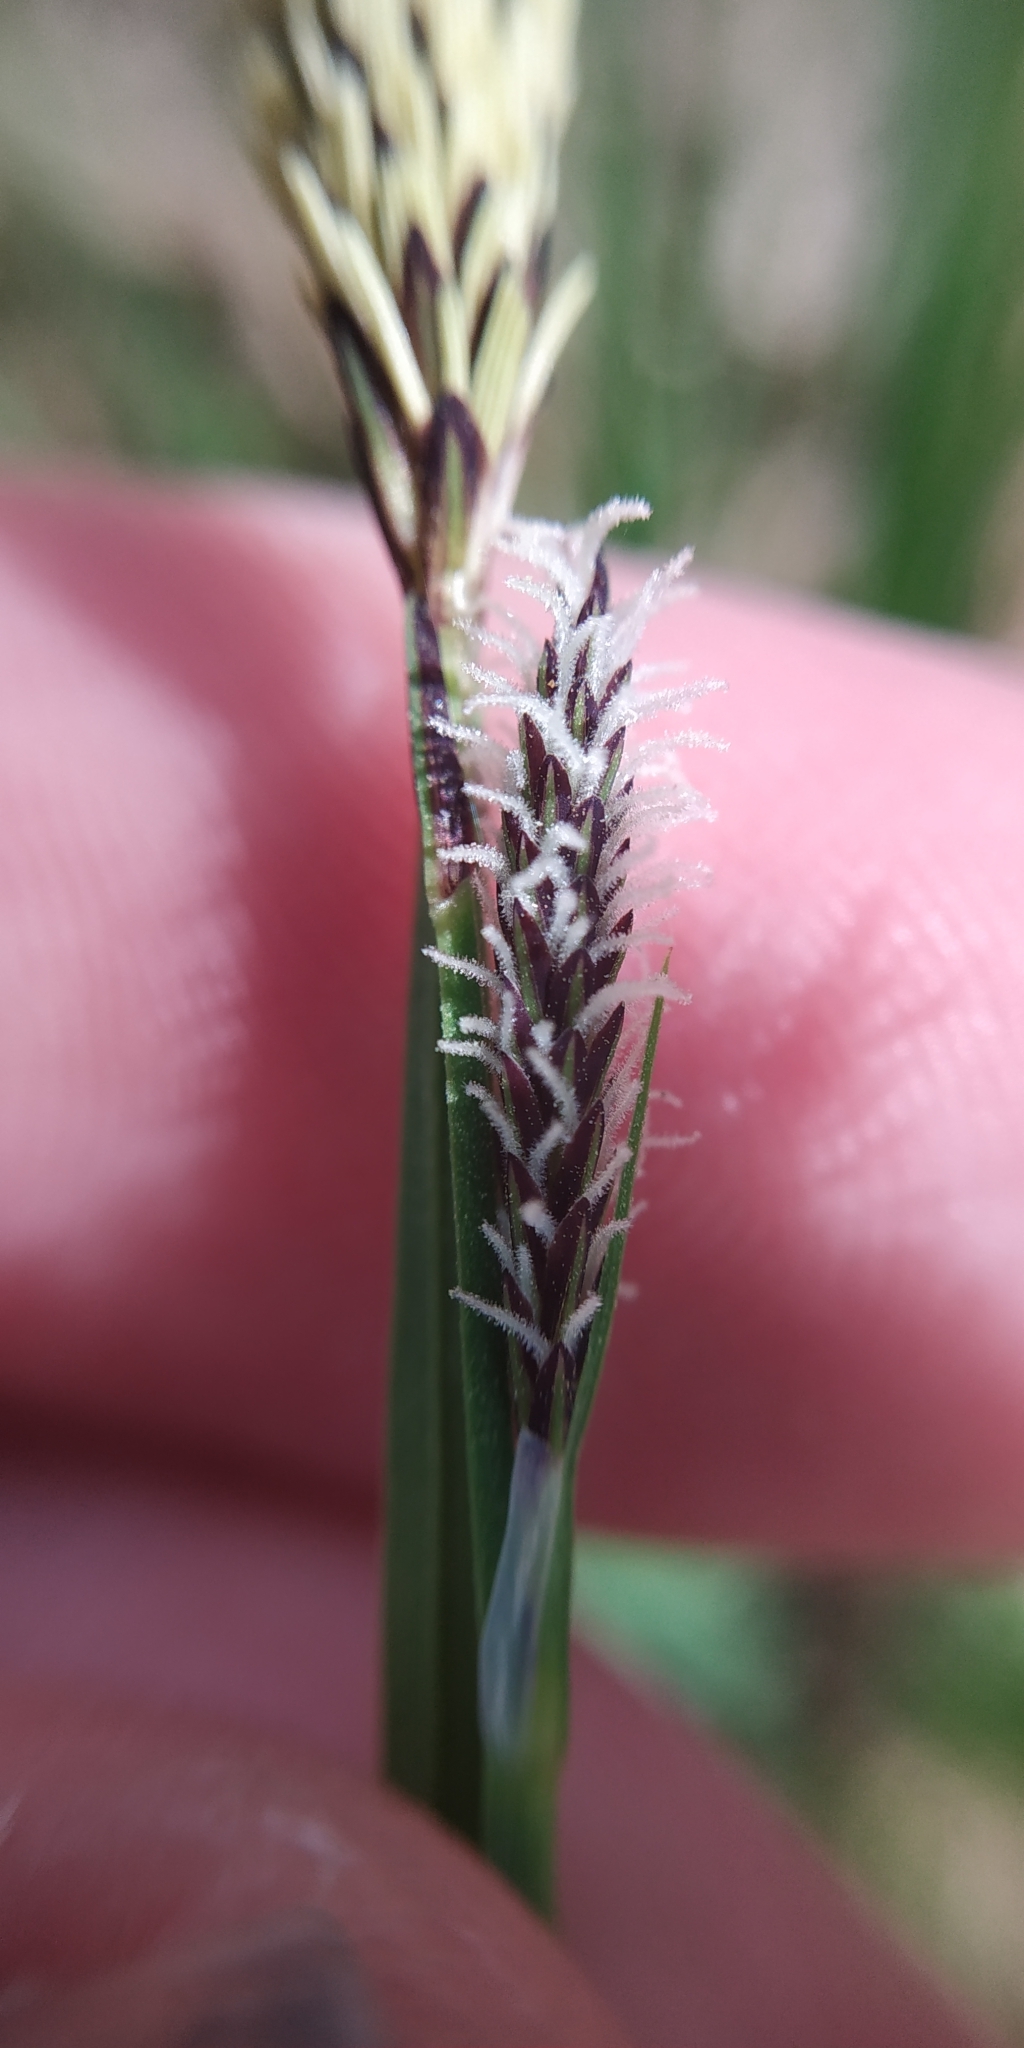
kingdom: Plantae
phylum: Tracheophyta
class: Liliopsida
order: Poales
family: Cyperaceae
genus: Carex
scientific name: Carex cespitosa
